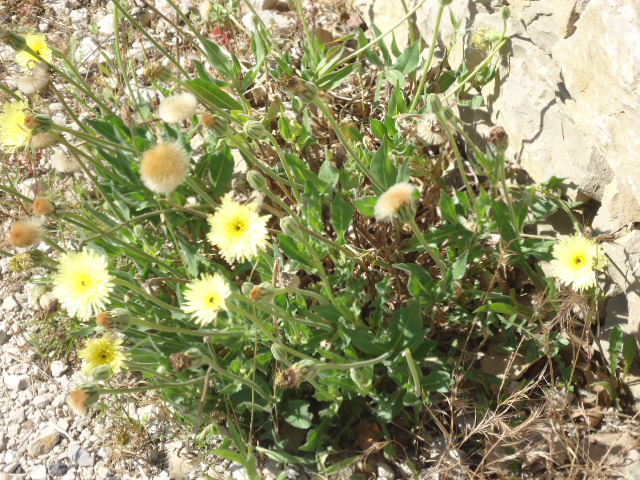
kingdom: Plantae
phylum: Tracheophyta
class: Magnoliopsida
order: Asterales
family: Asteraceae
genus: Urospermum
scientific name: Urospermum dalechampii
